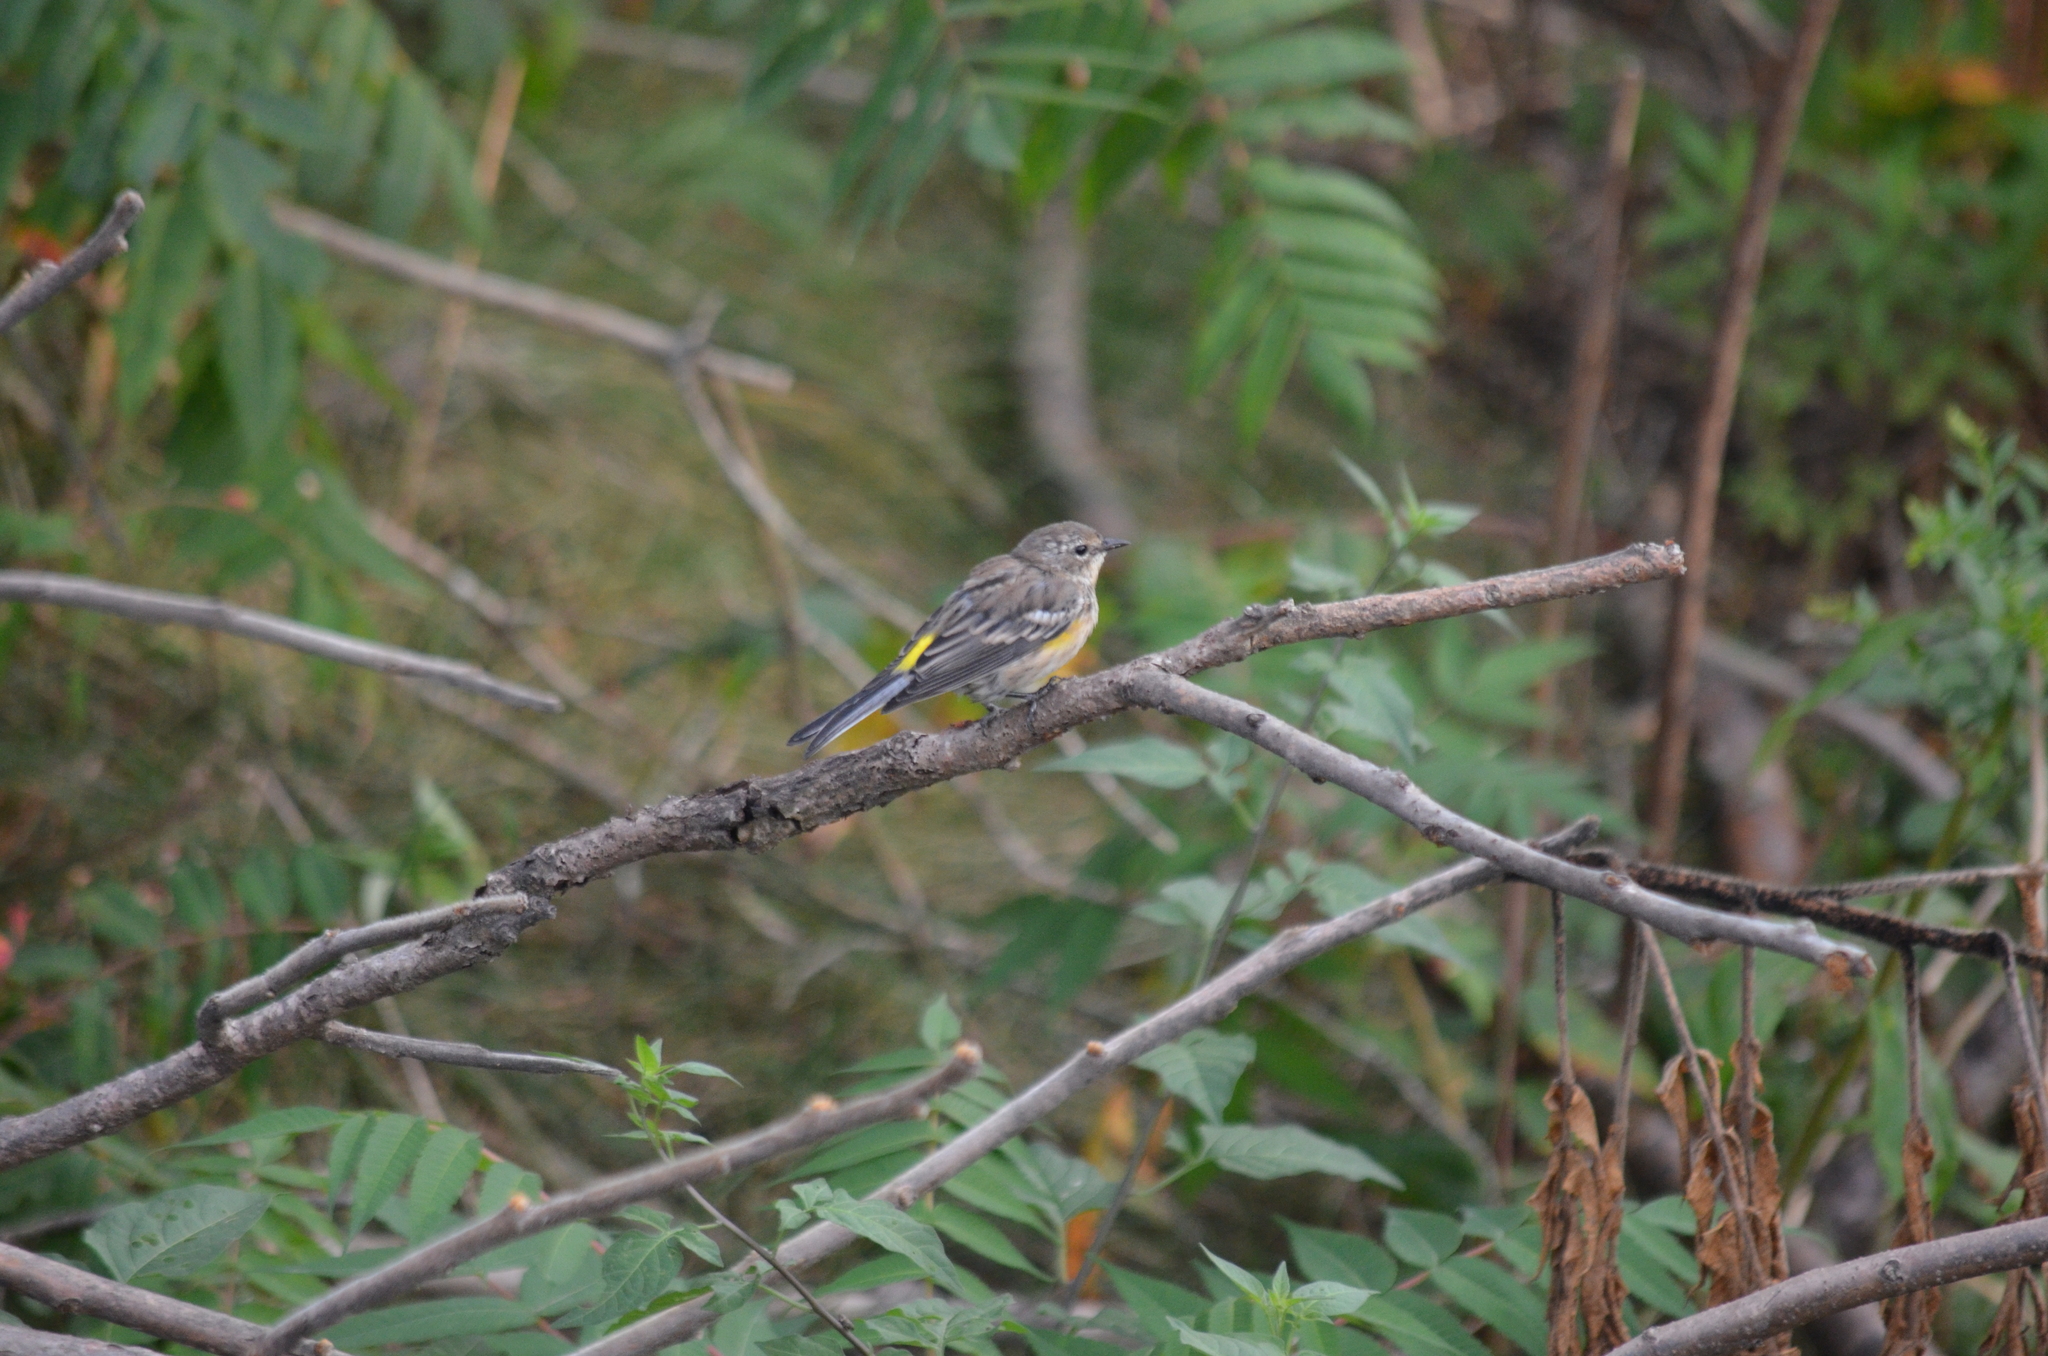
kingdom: Animalia
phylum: Chordata
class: Aves
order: Passeriformes
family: Parulidae
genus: Setophaga
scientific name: Setophaga coronata
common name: Myrtle warbler
